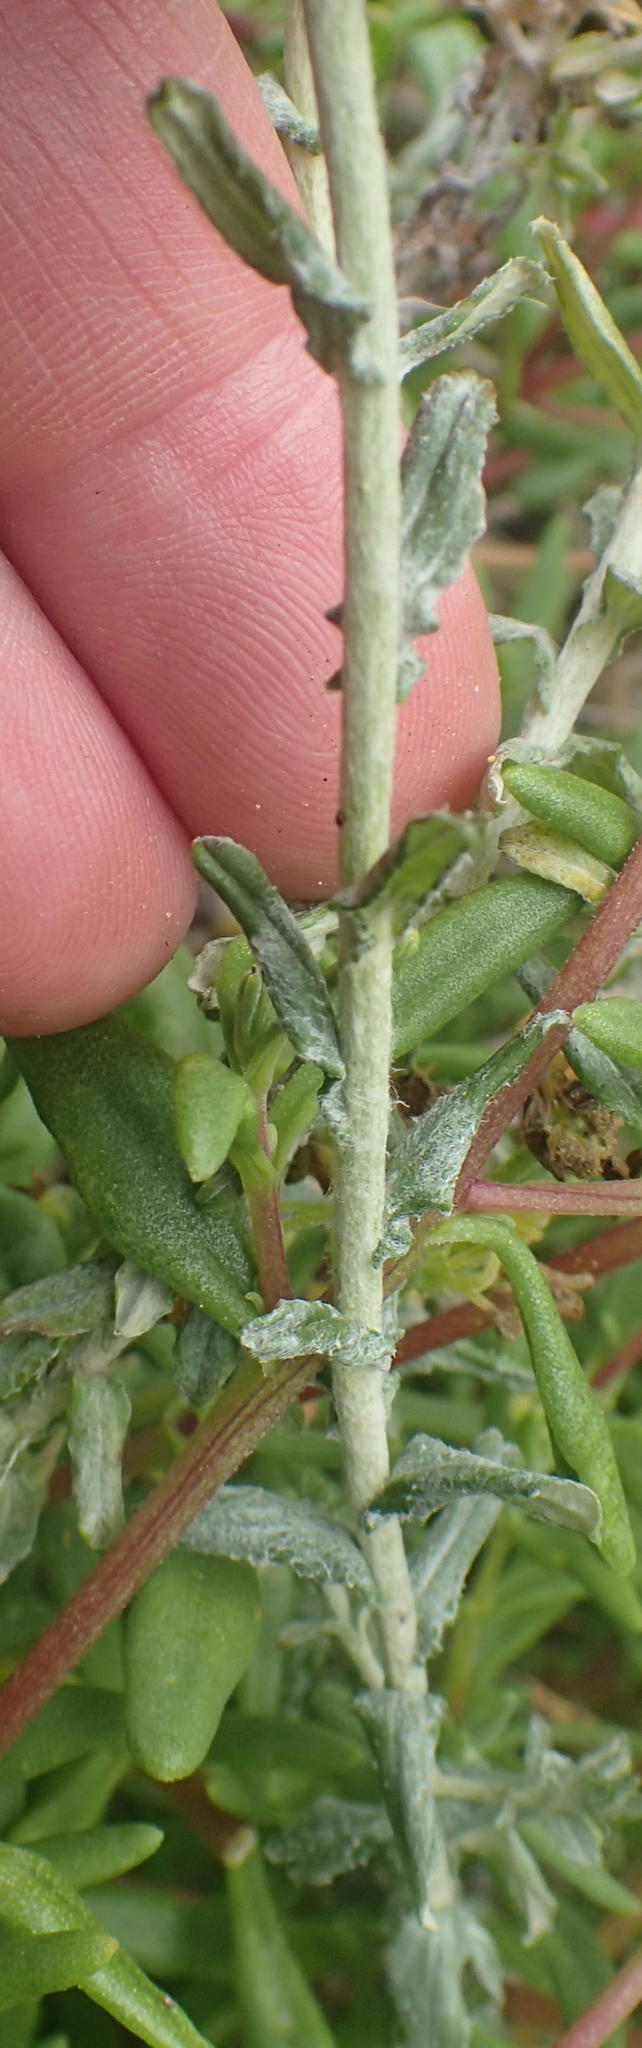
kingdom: Plantae
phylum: Tracheophyta
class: Magnoliopsida
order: Asterales
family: Asteraceae
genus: Helichrysum
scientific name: Helichrysum cymosum
